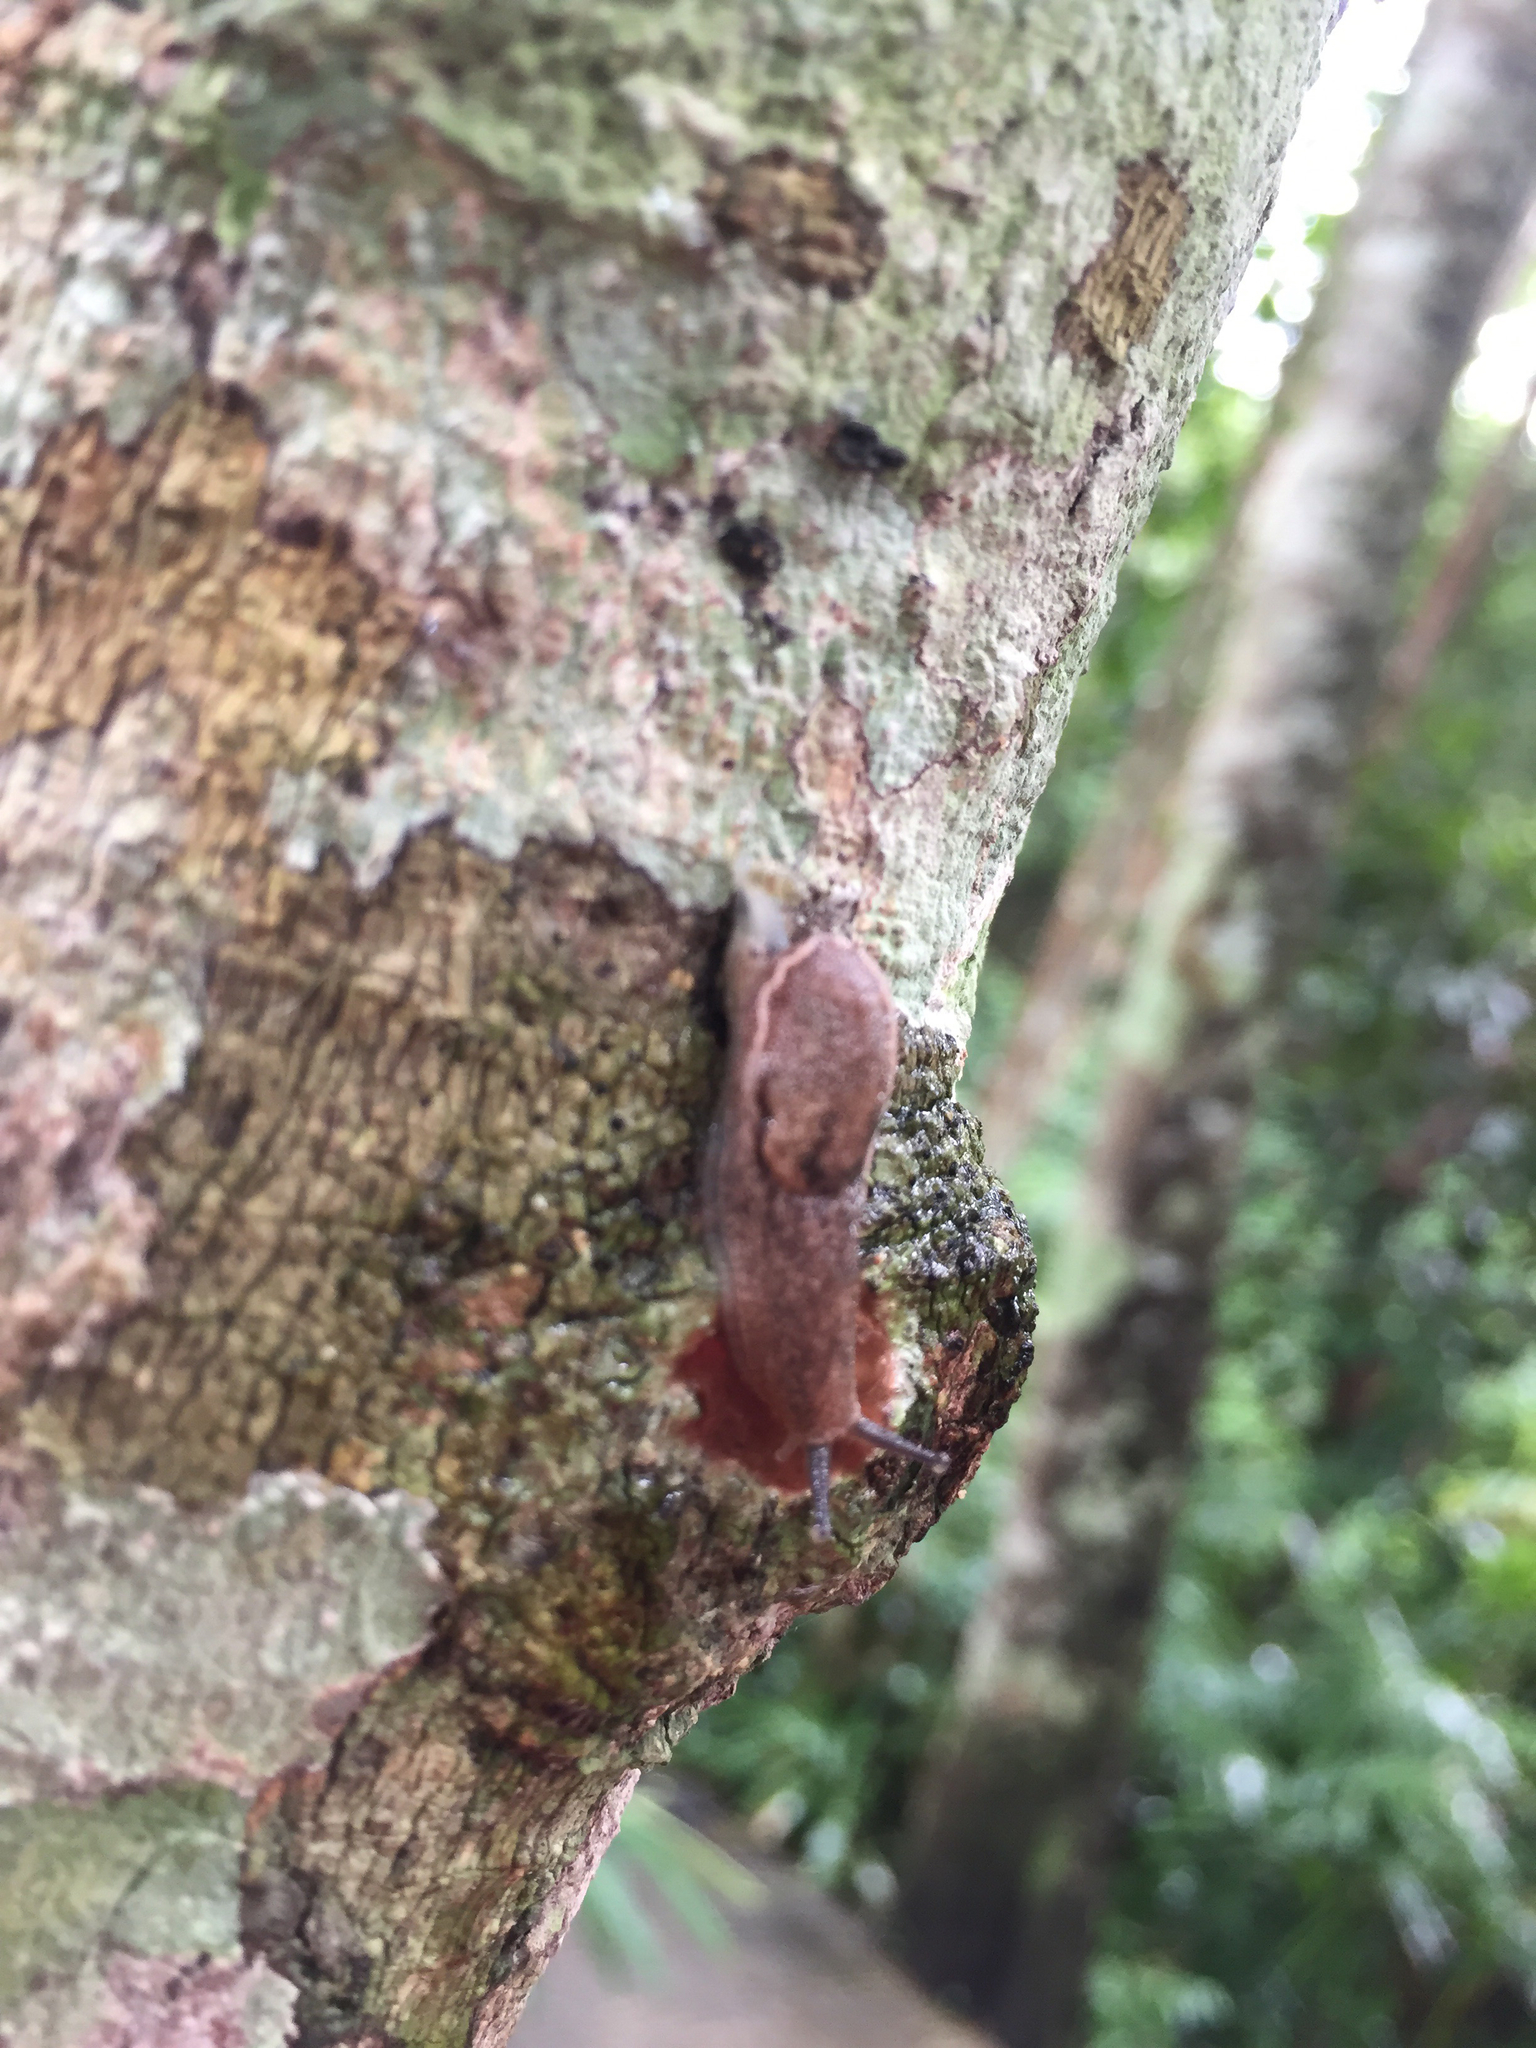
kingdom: Animalia
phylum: Mollusca
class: Gastropoda
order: Stylommatophora
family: Ariophantidae
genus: Parmarion
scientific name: Parmarion martensi
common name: Semi-slug
